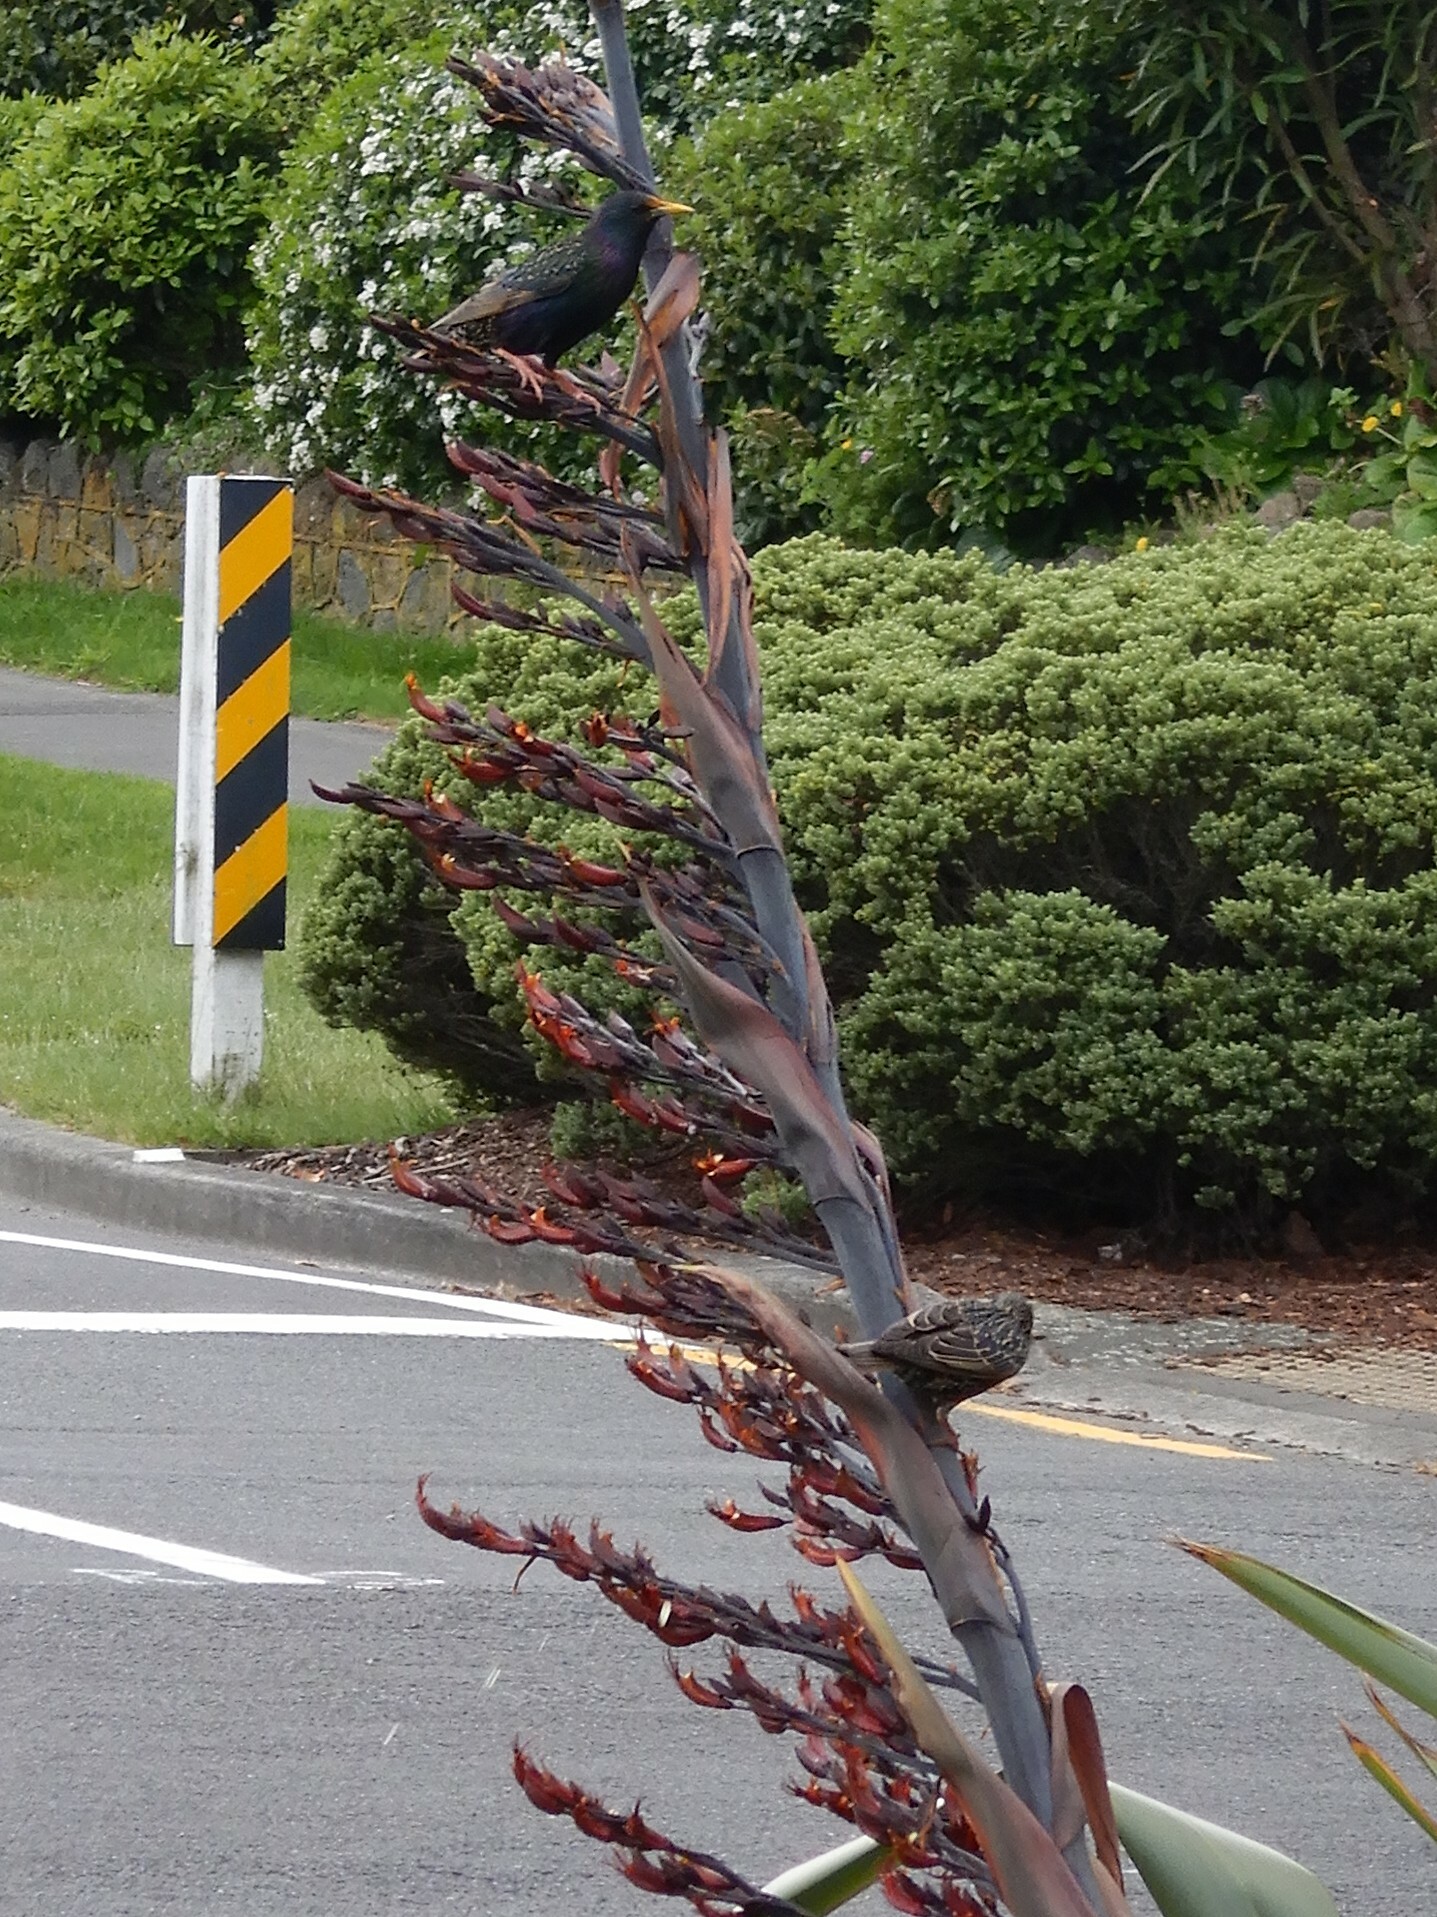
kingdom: Animalia
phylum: Chordata
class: Aves
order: Passeriformes
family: Sturnidae
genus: Sturnus
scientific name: Sturnus vulgaris
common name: Common starling
